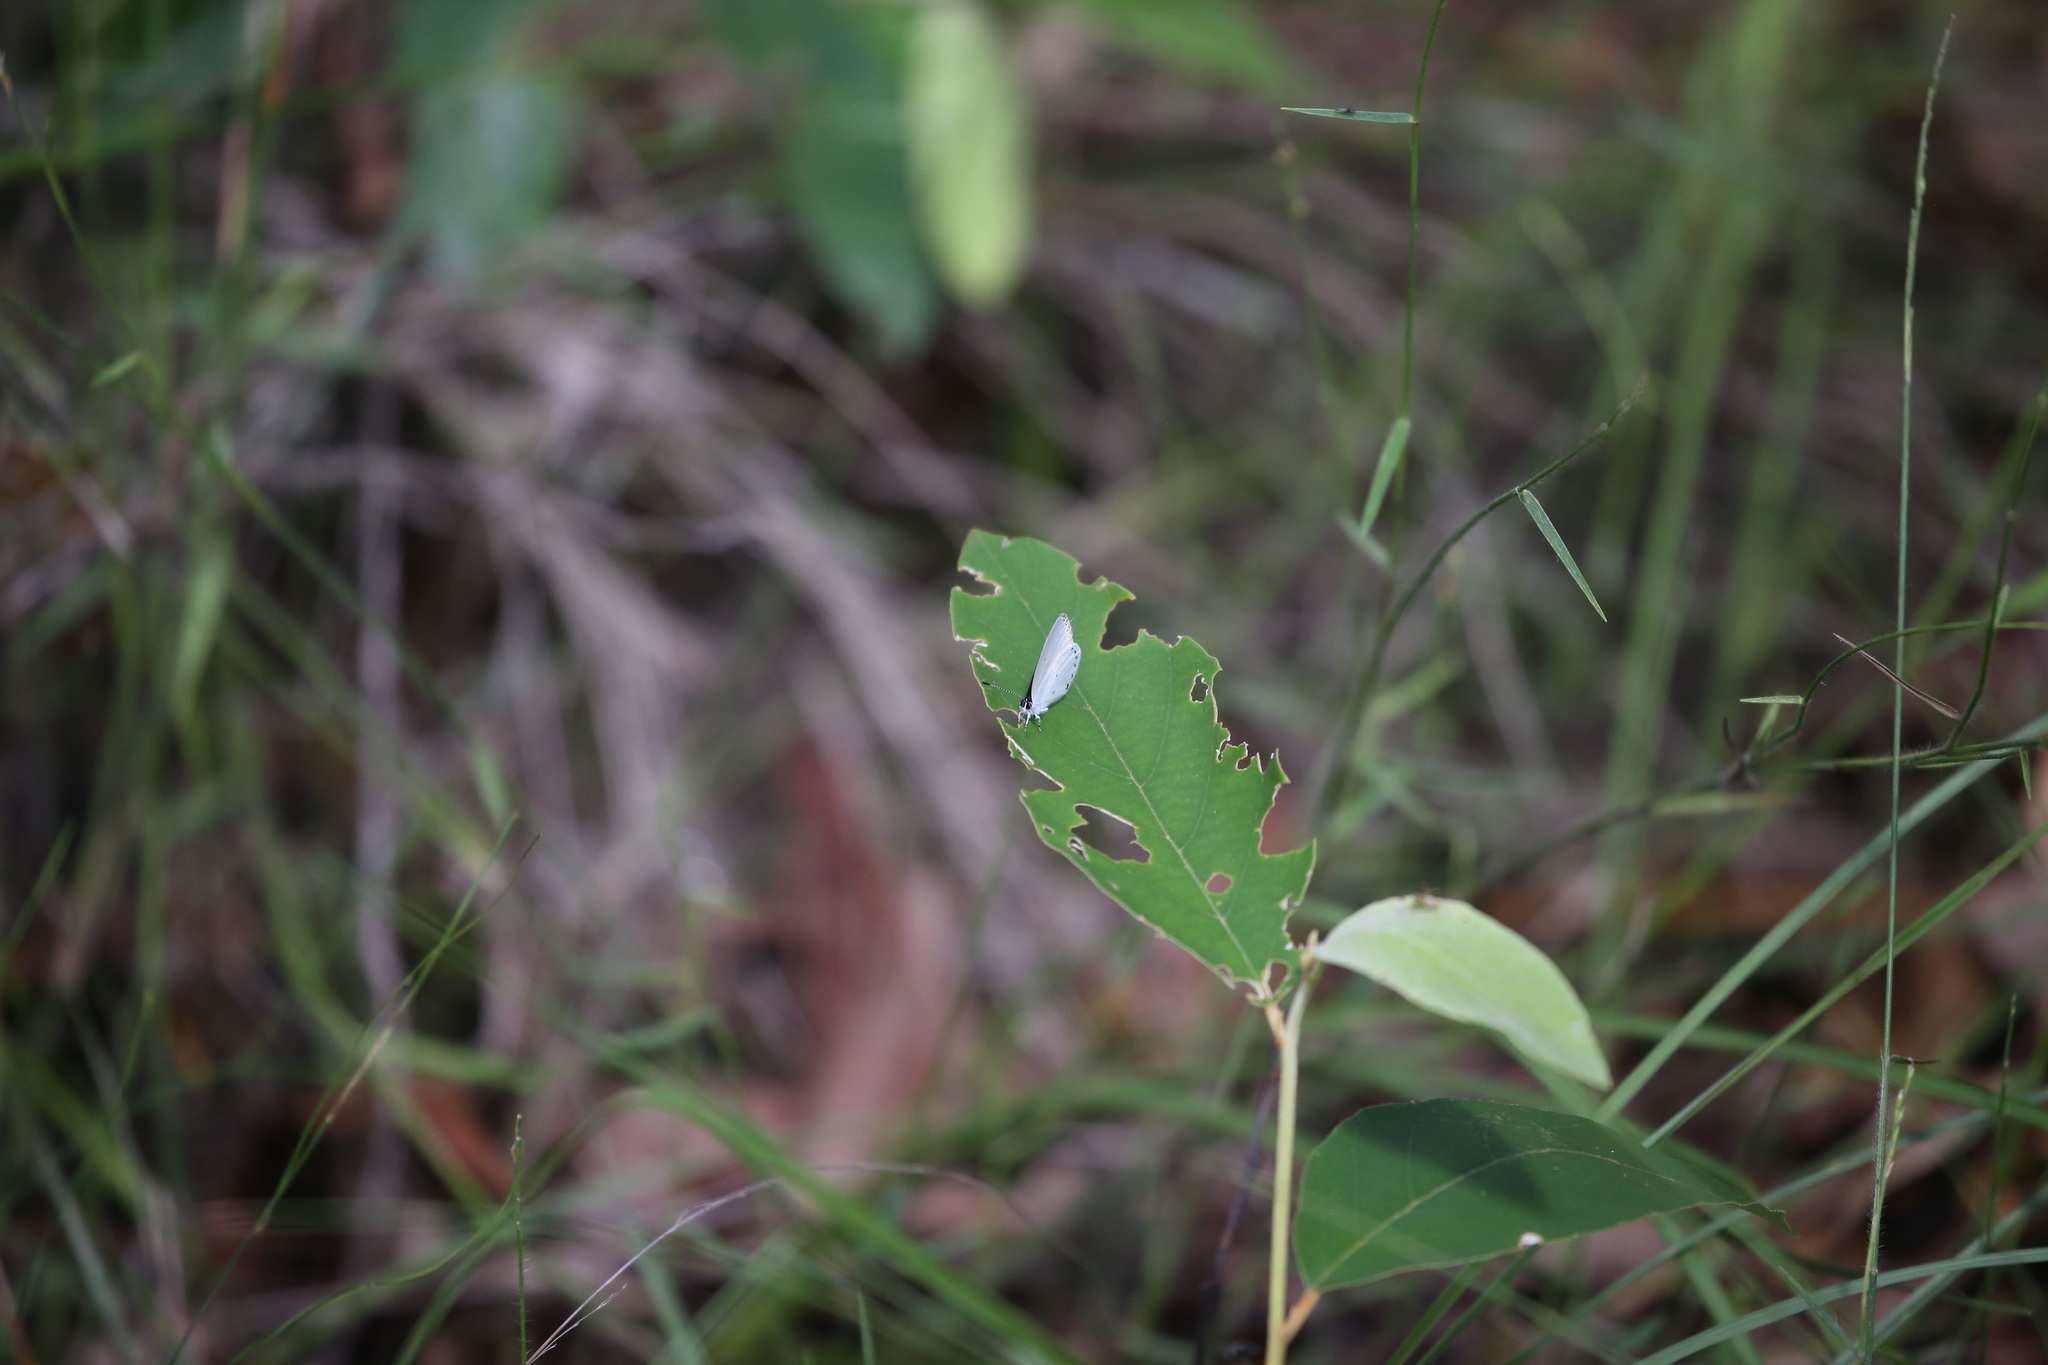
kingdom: Animalia
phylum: Arthropoda
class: Insecta
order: Lepidoptera
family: Lycaenidae
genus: Candalides
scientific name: Candalides xanthospilos
